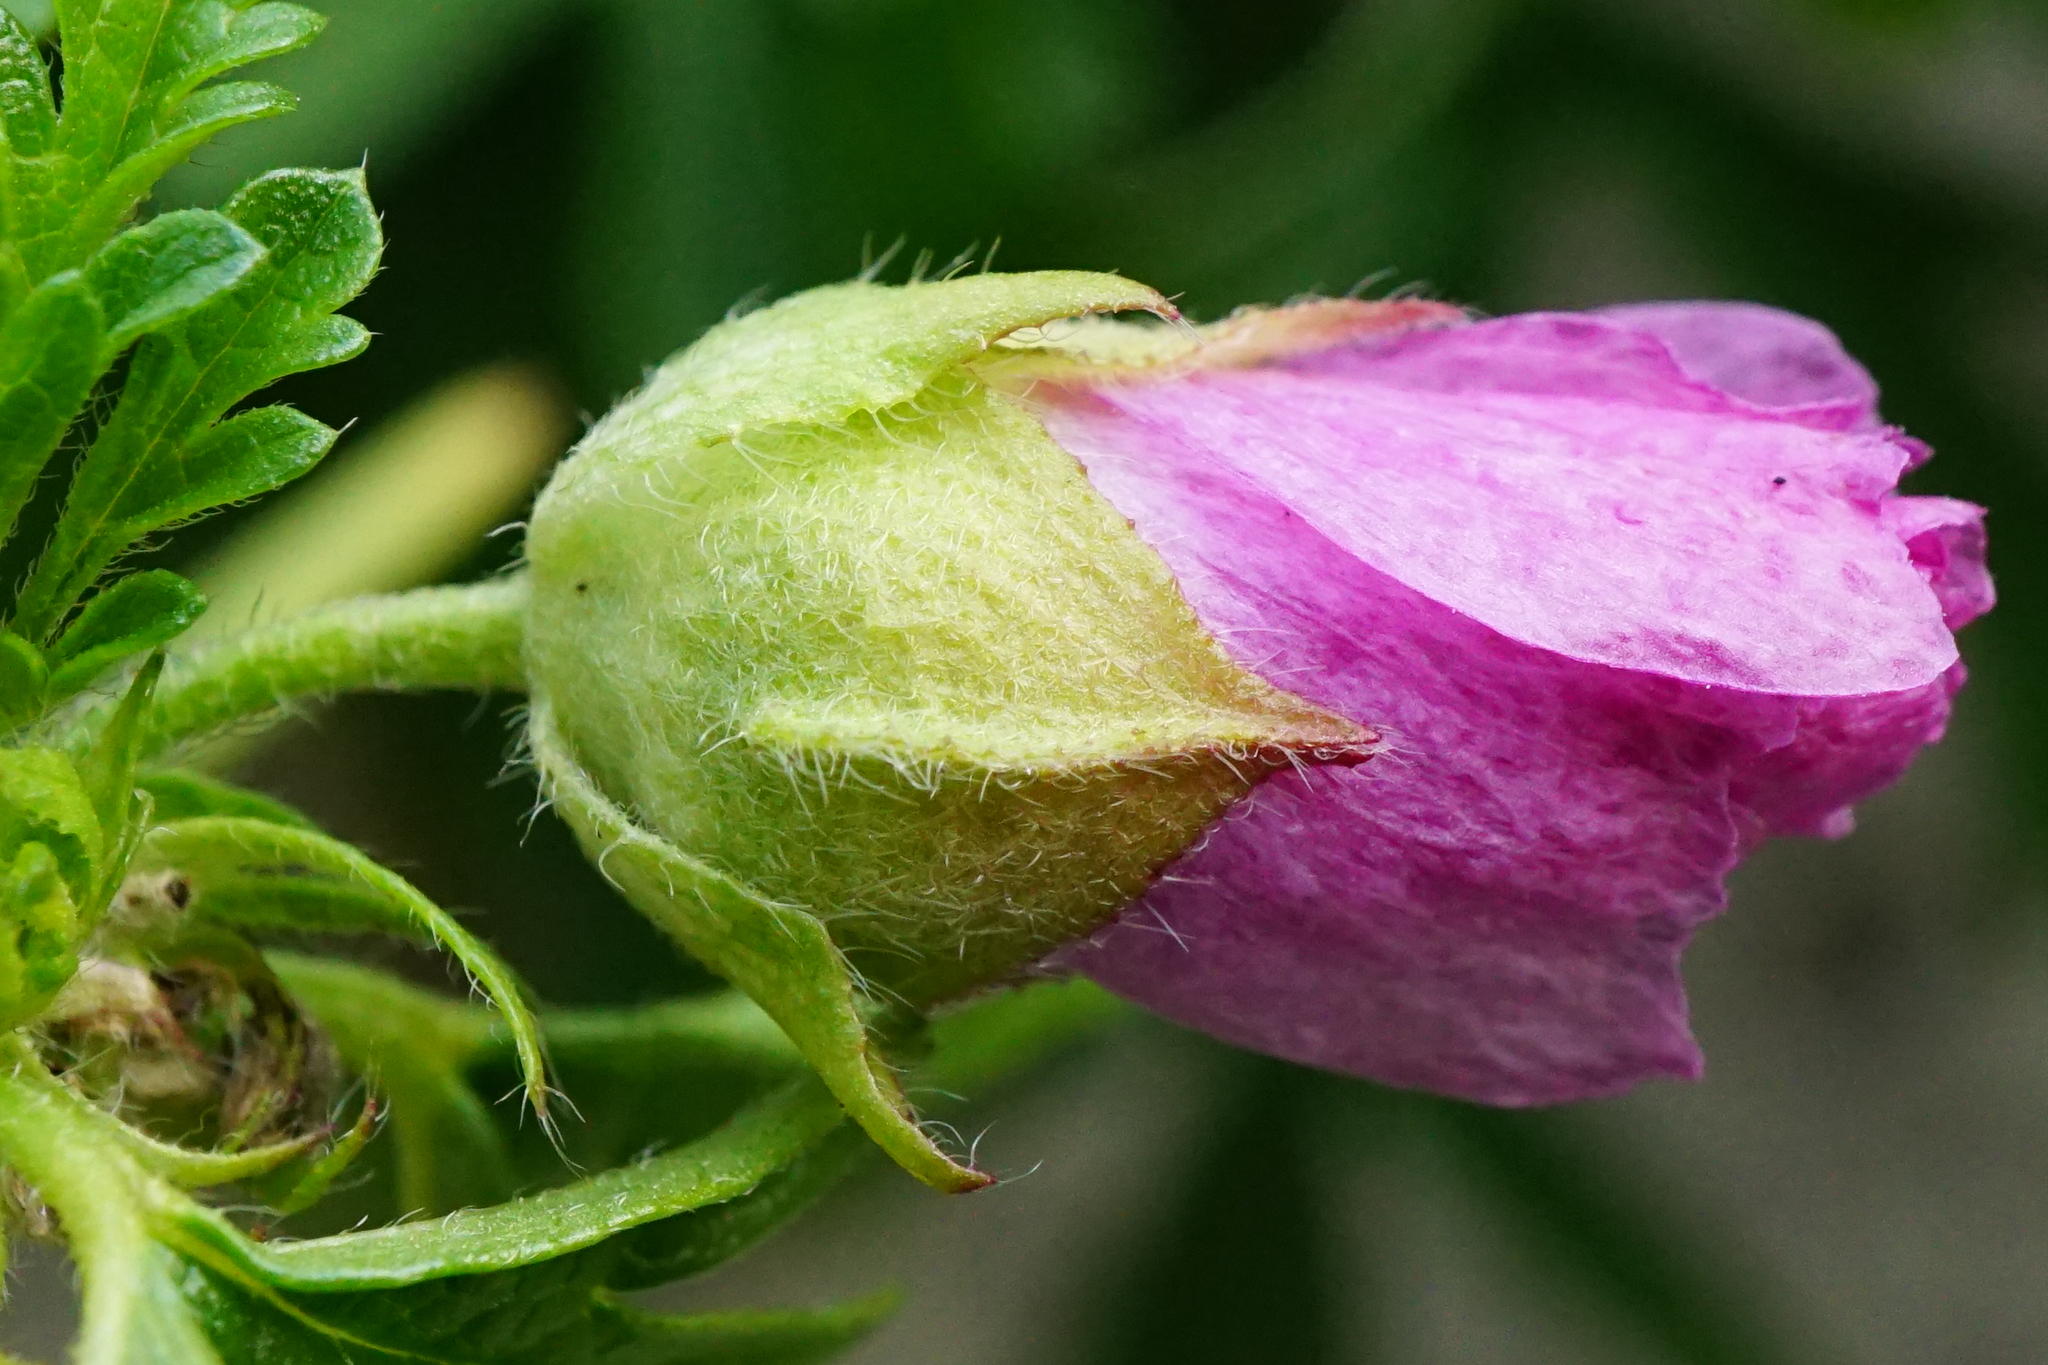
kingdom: Plantae
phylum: Tracheophyta
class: Magnoliopsida
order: Malvales
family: Malvaceae
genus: Malva
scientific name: Malva alcea
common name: Greater musk-mallow
